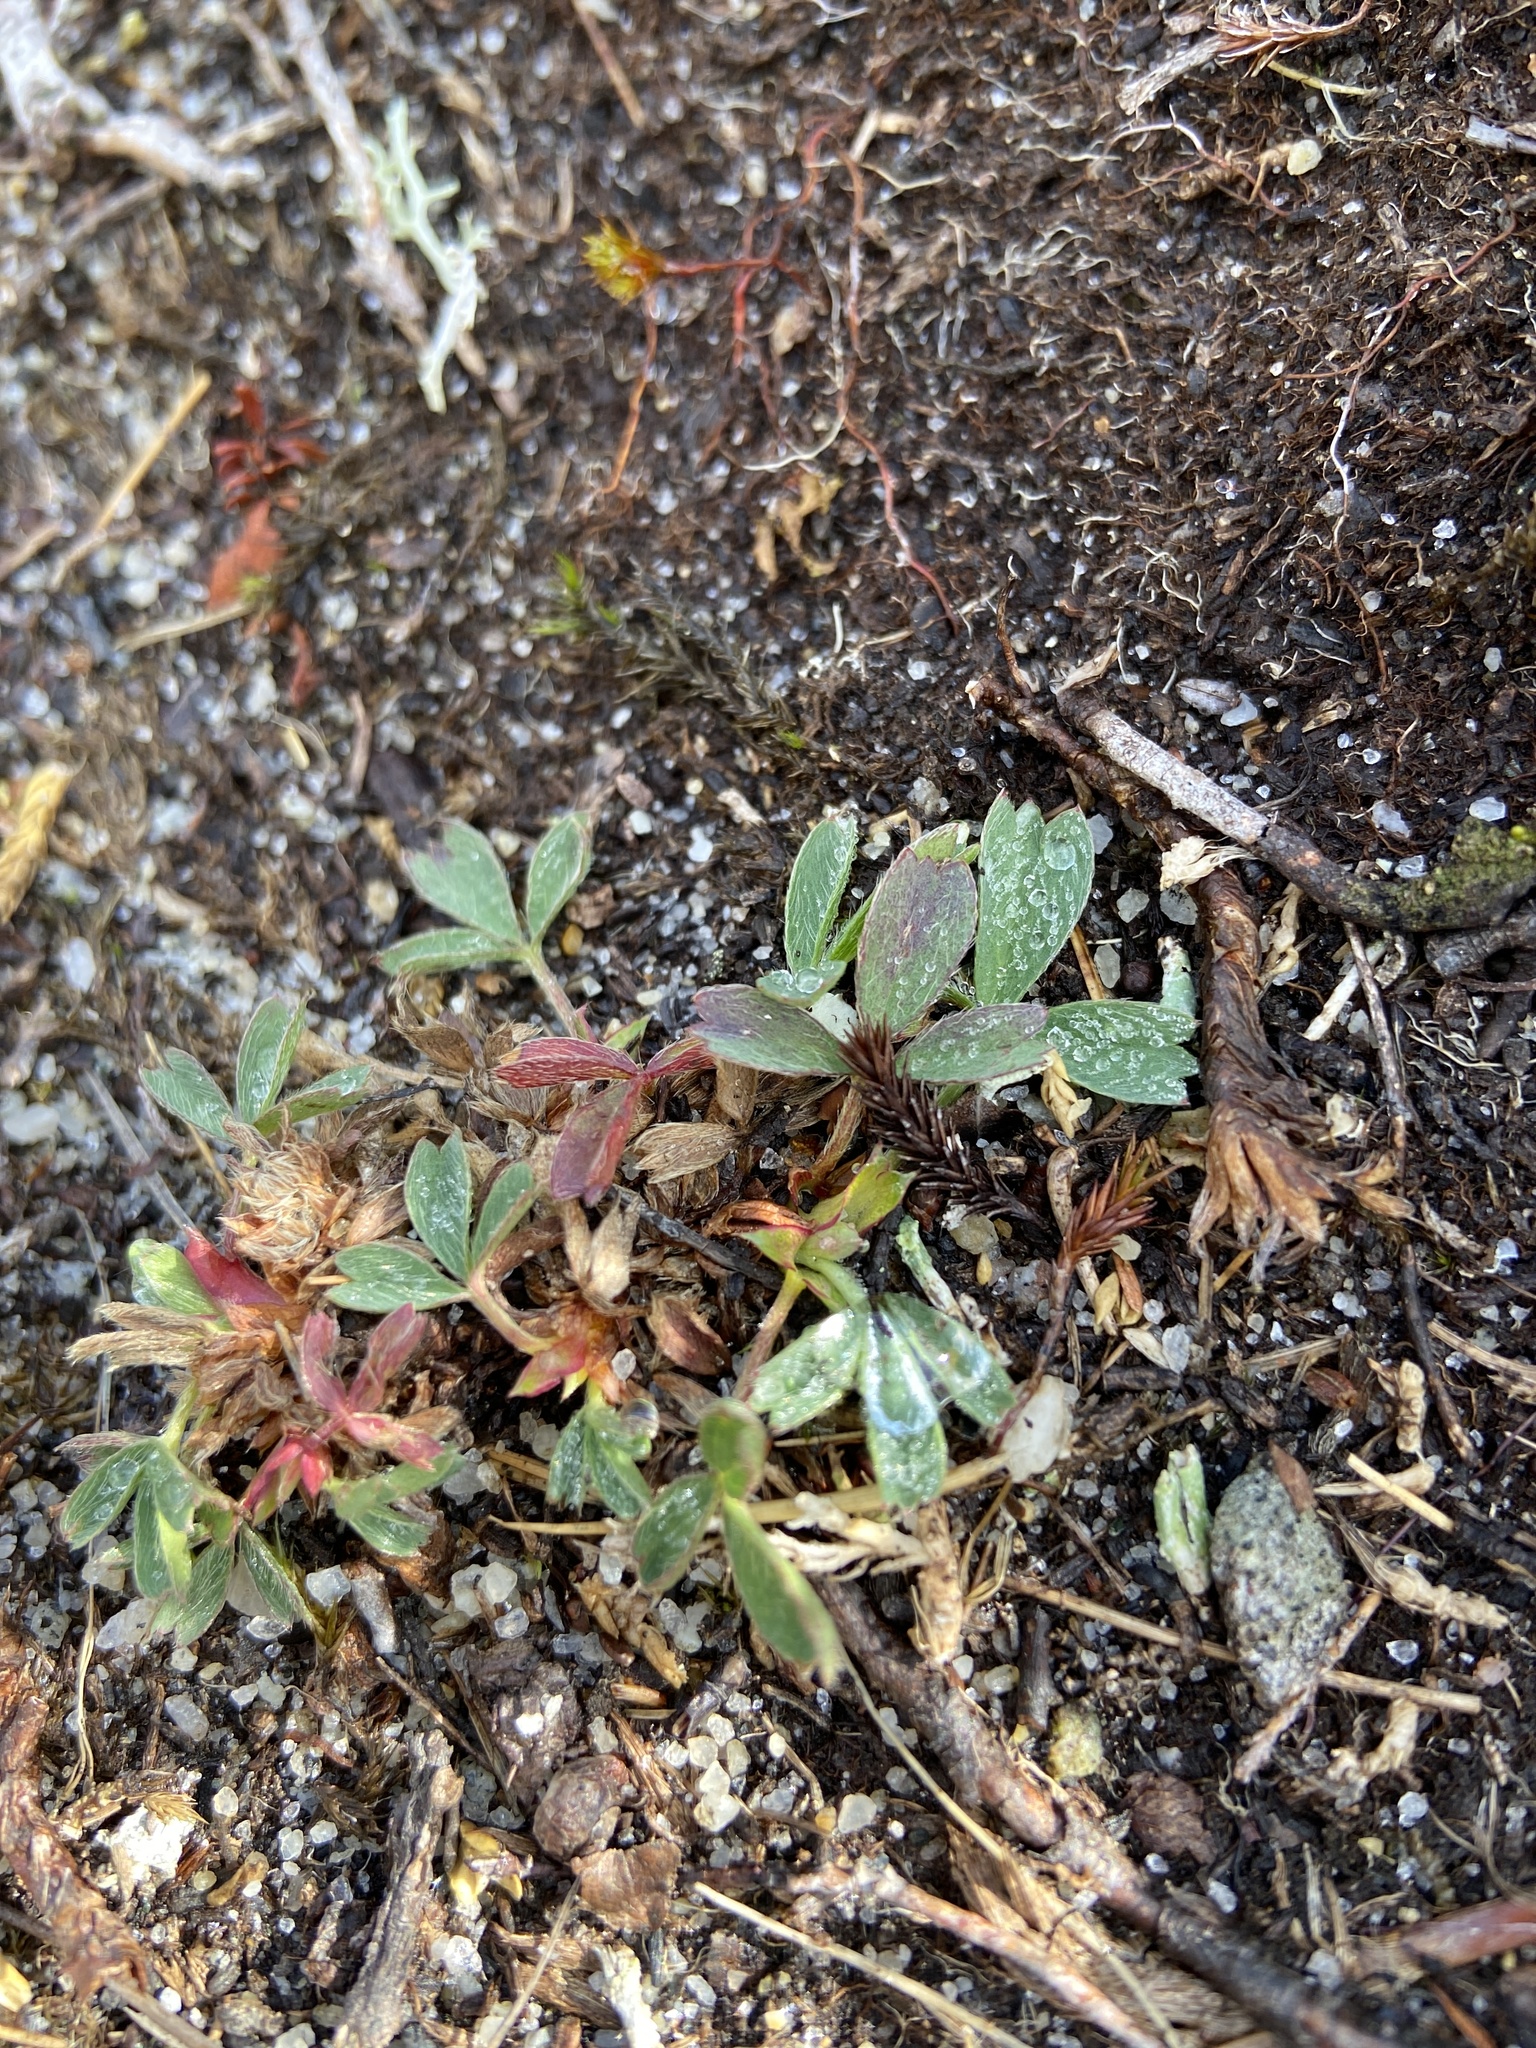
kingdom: Plantae
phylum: Tracheophyta
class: Magnoliopsida
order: Rosales
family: Rosaceae
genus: Sibbaldia
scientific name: Sibbaldia procumbens
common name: Creeping sibbaldia
